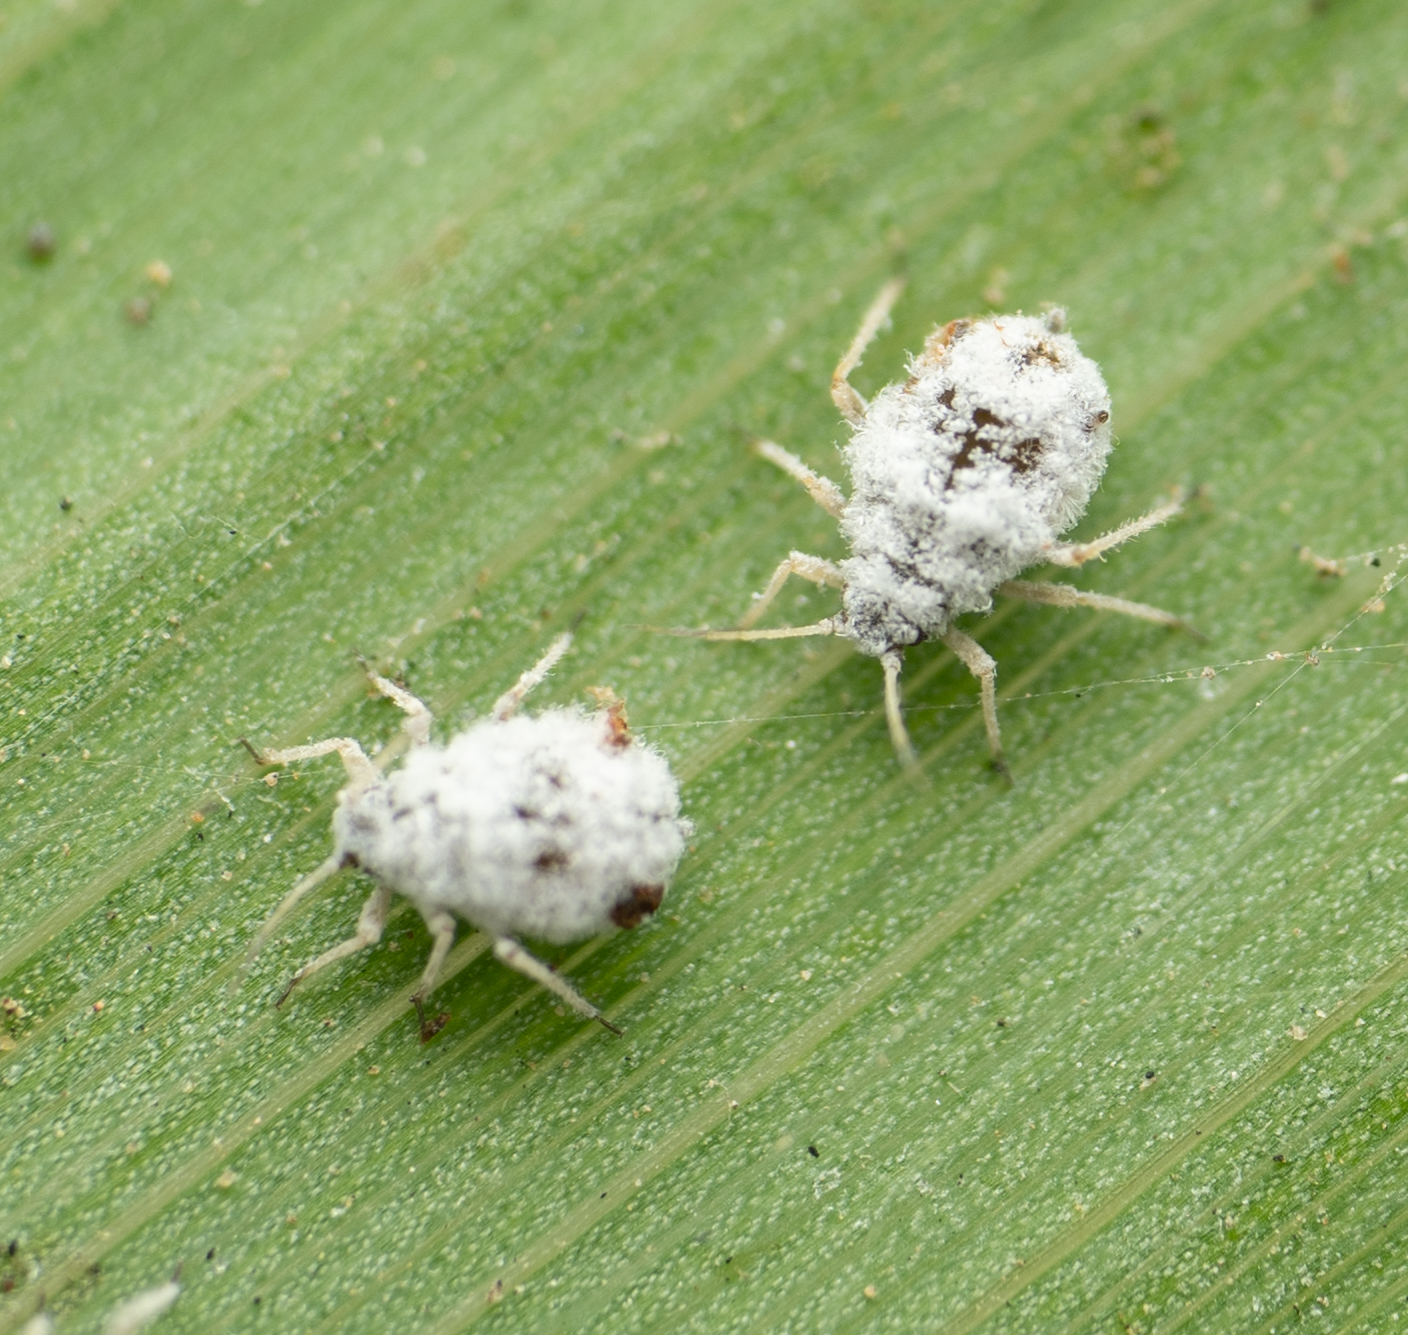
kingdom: Animalia
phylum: Arthropoda
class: Insecta
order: Hemiptera
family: Aphididae
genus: Melanaphis
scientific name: Melanaphis donacis
